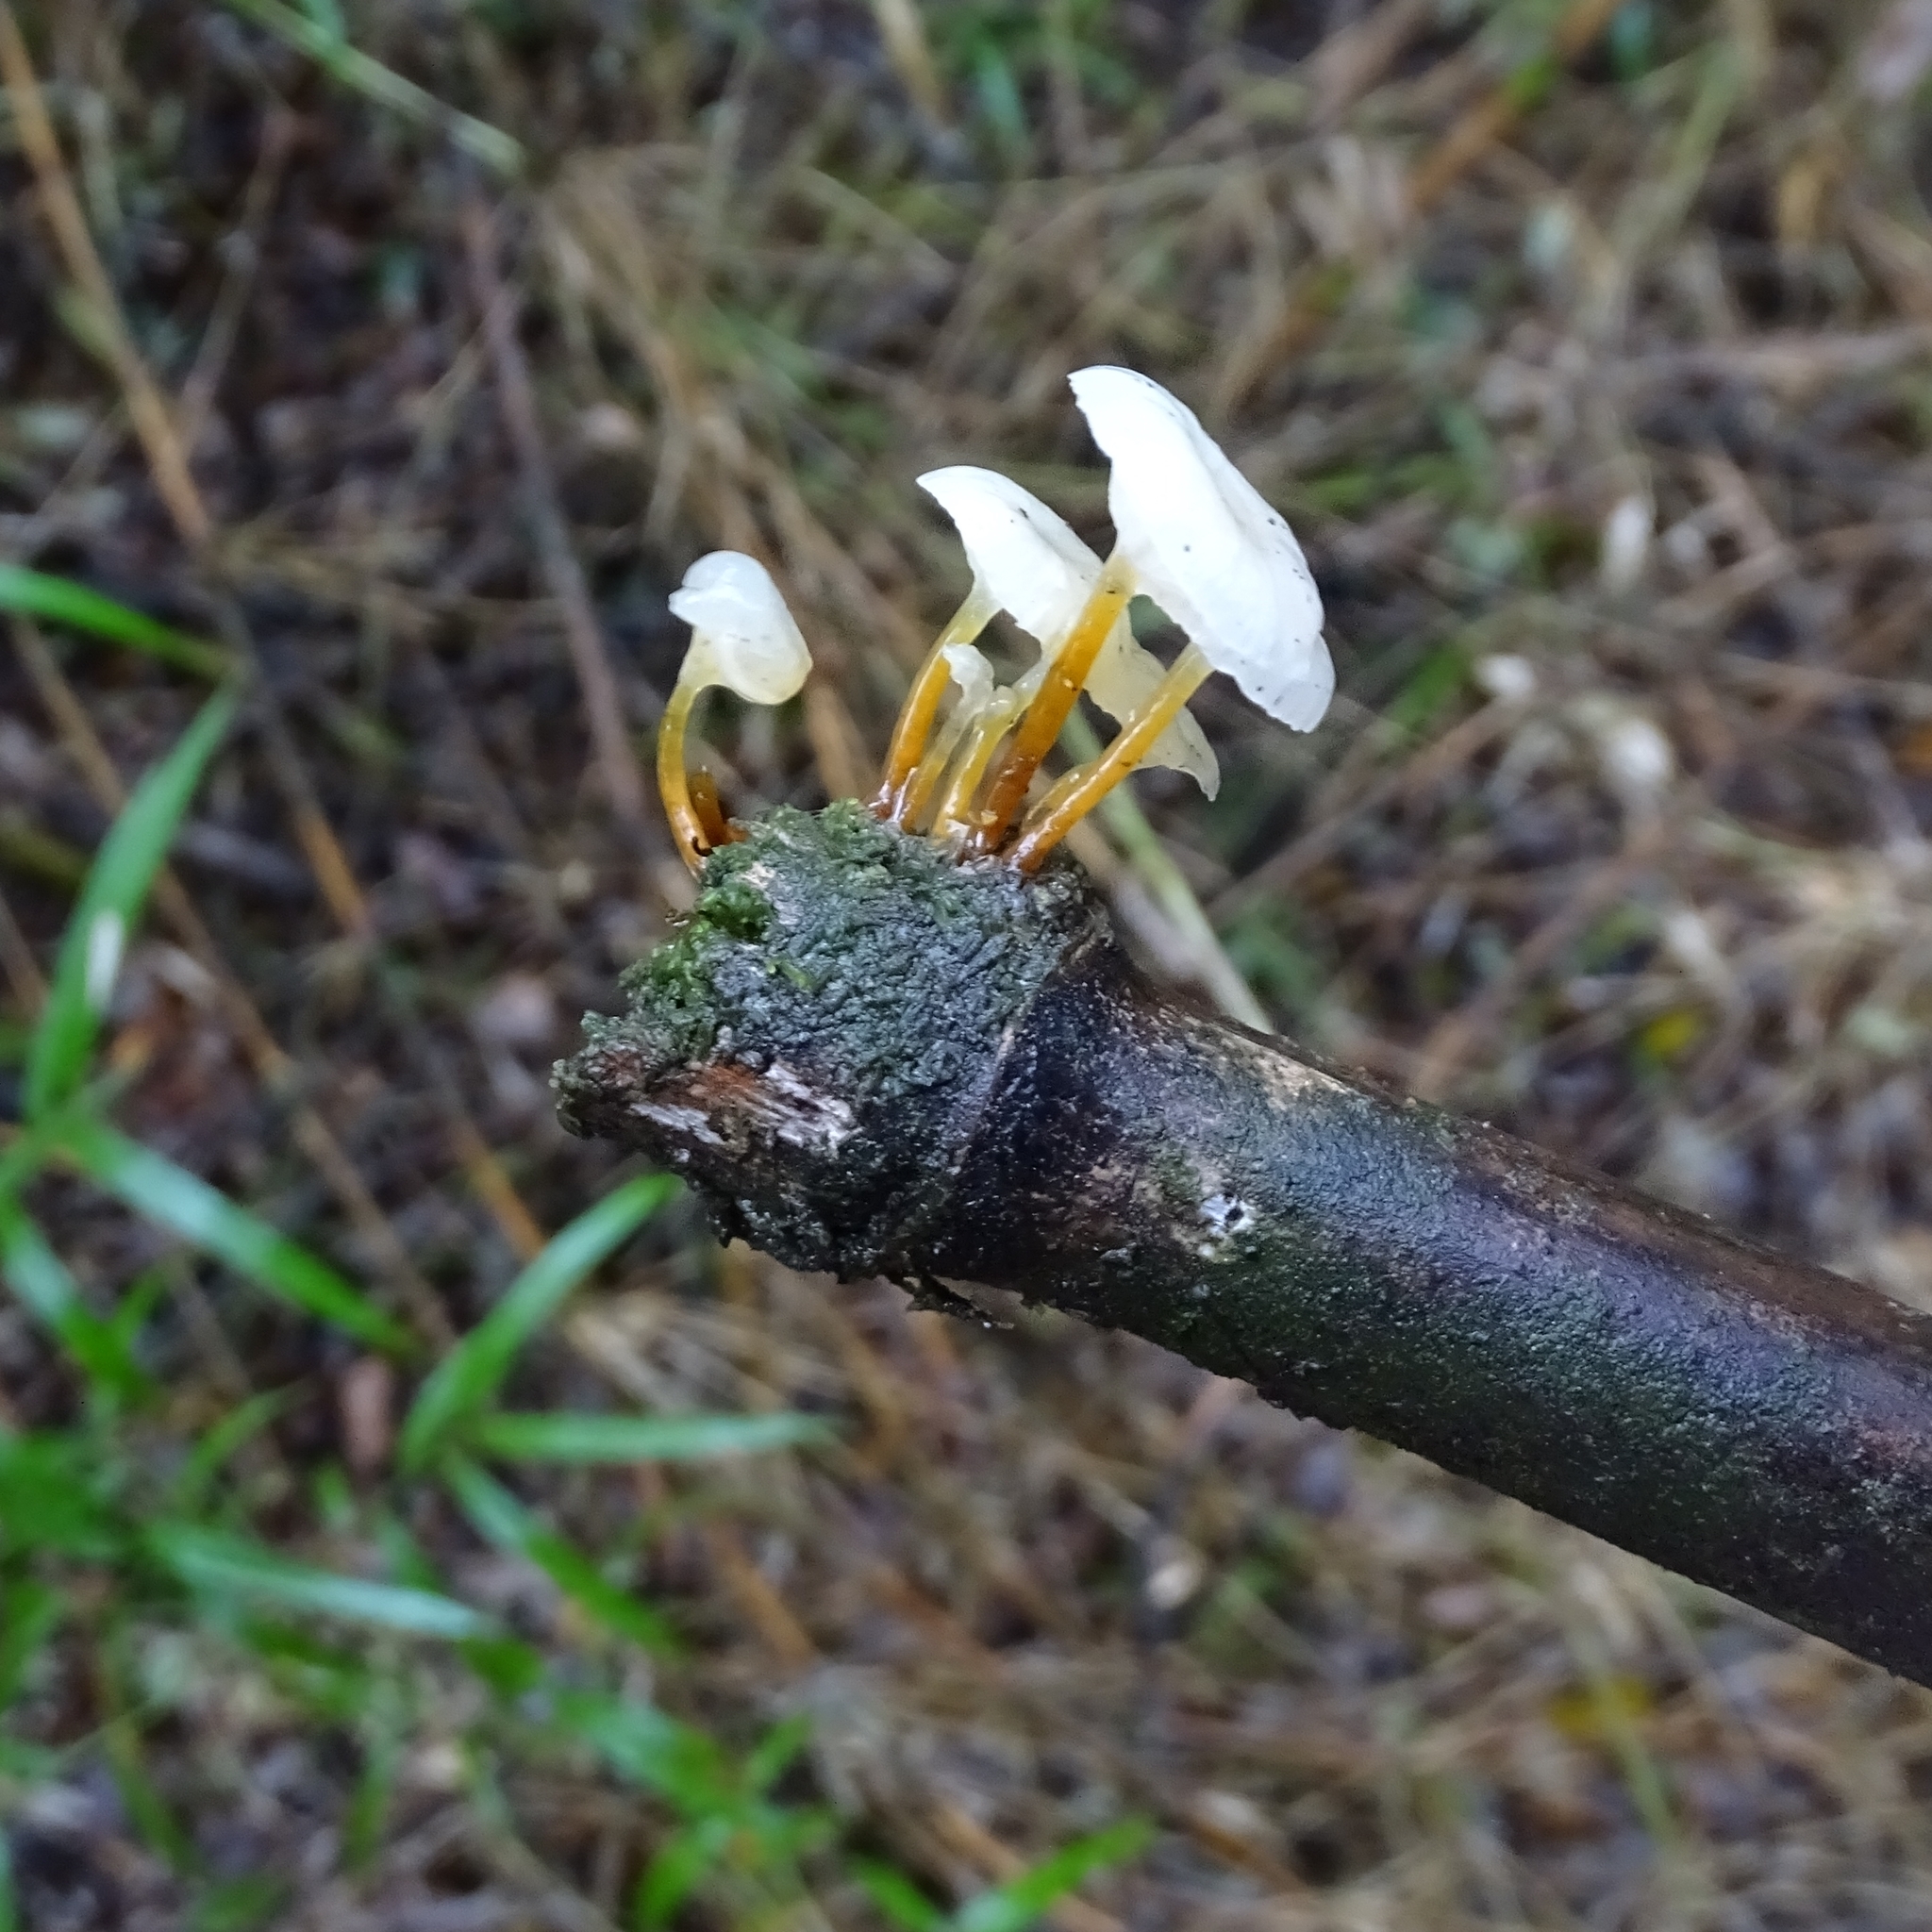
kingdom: Fungi
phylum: Basidiomycota
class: Agaricomycetes
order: Agaricales
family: Mycenaceae
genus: Mycena
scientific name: Mycena subulifera
